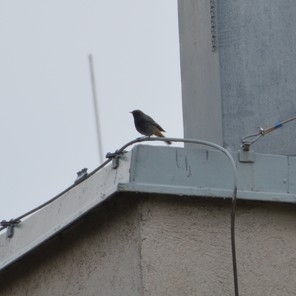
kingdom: Animalia
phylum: Chordata
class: Aves
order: Passeriformes
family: Muscicapidae
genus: Phoenicurus
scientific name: Phoenicurus ochruros
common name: Black redstart
